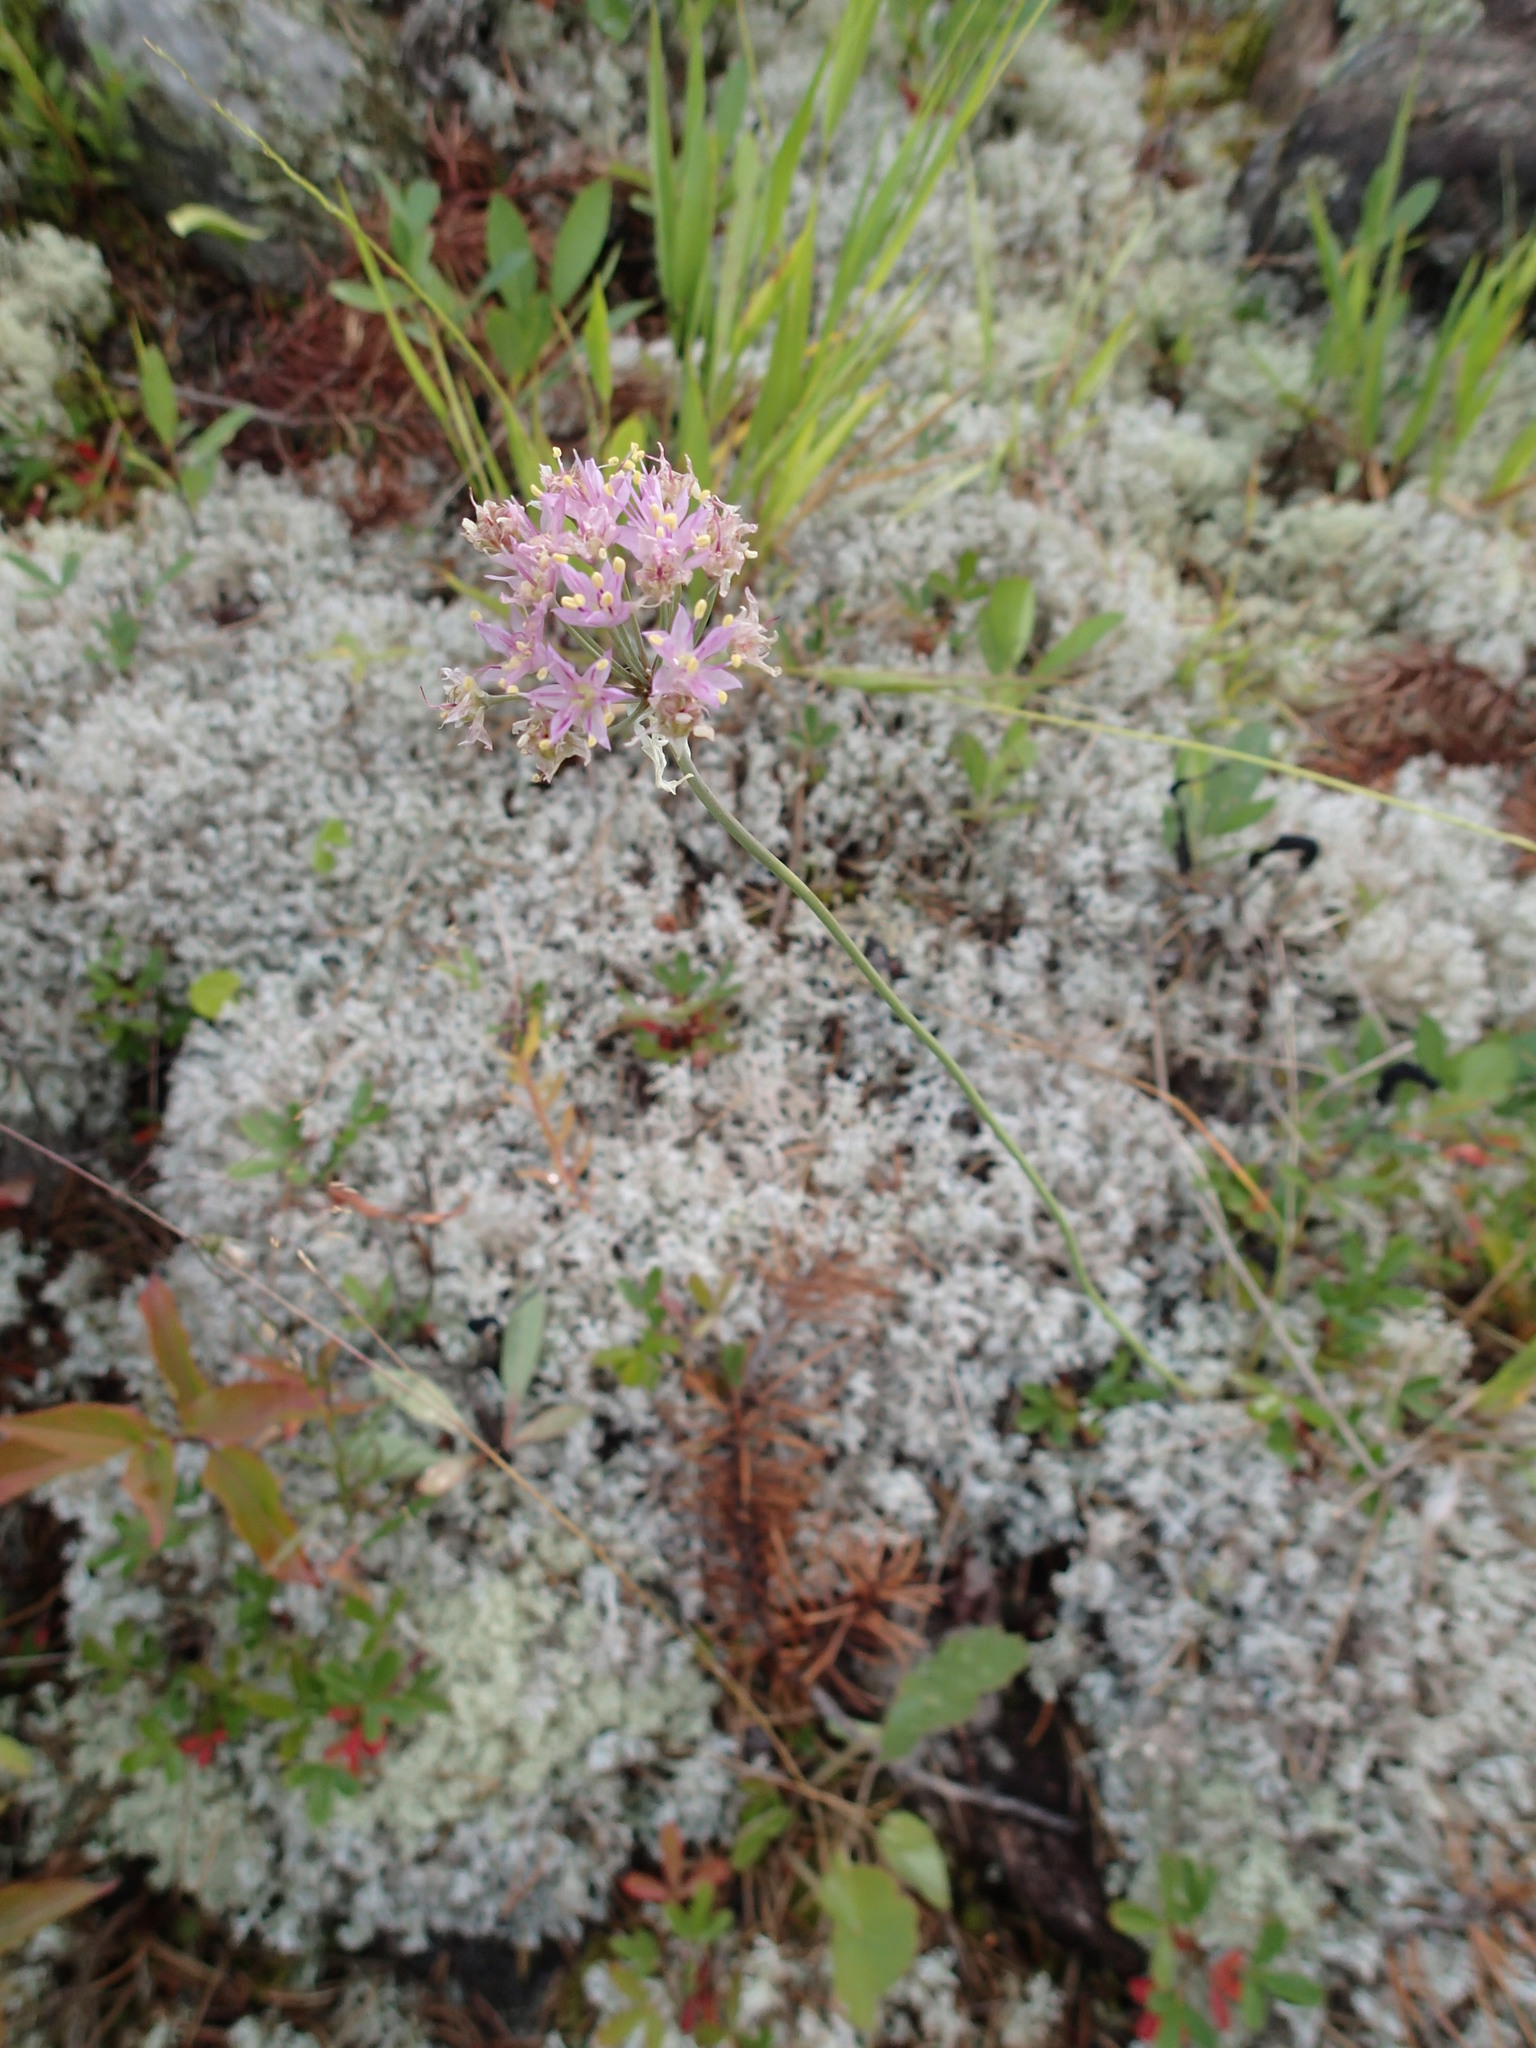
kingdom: Plantae
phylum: Tracheophyta
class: Liliopsida
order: Asparagales
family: Amaryllidaceae
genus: Allium
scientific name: Allium stellatum
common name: Autumn onion
